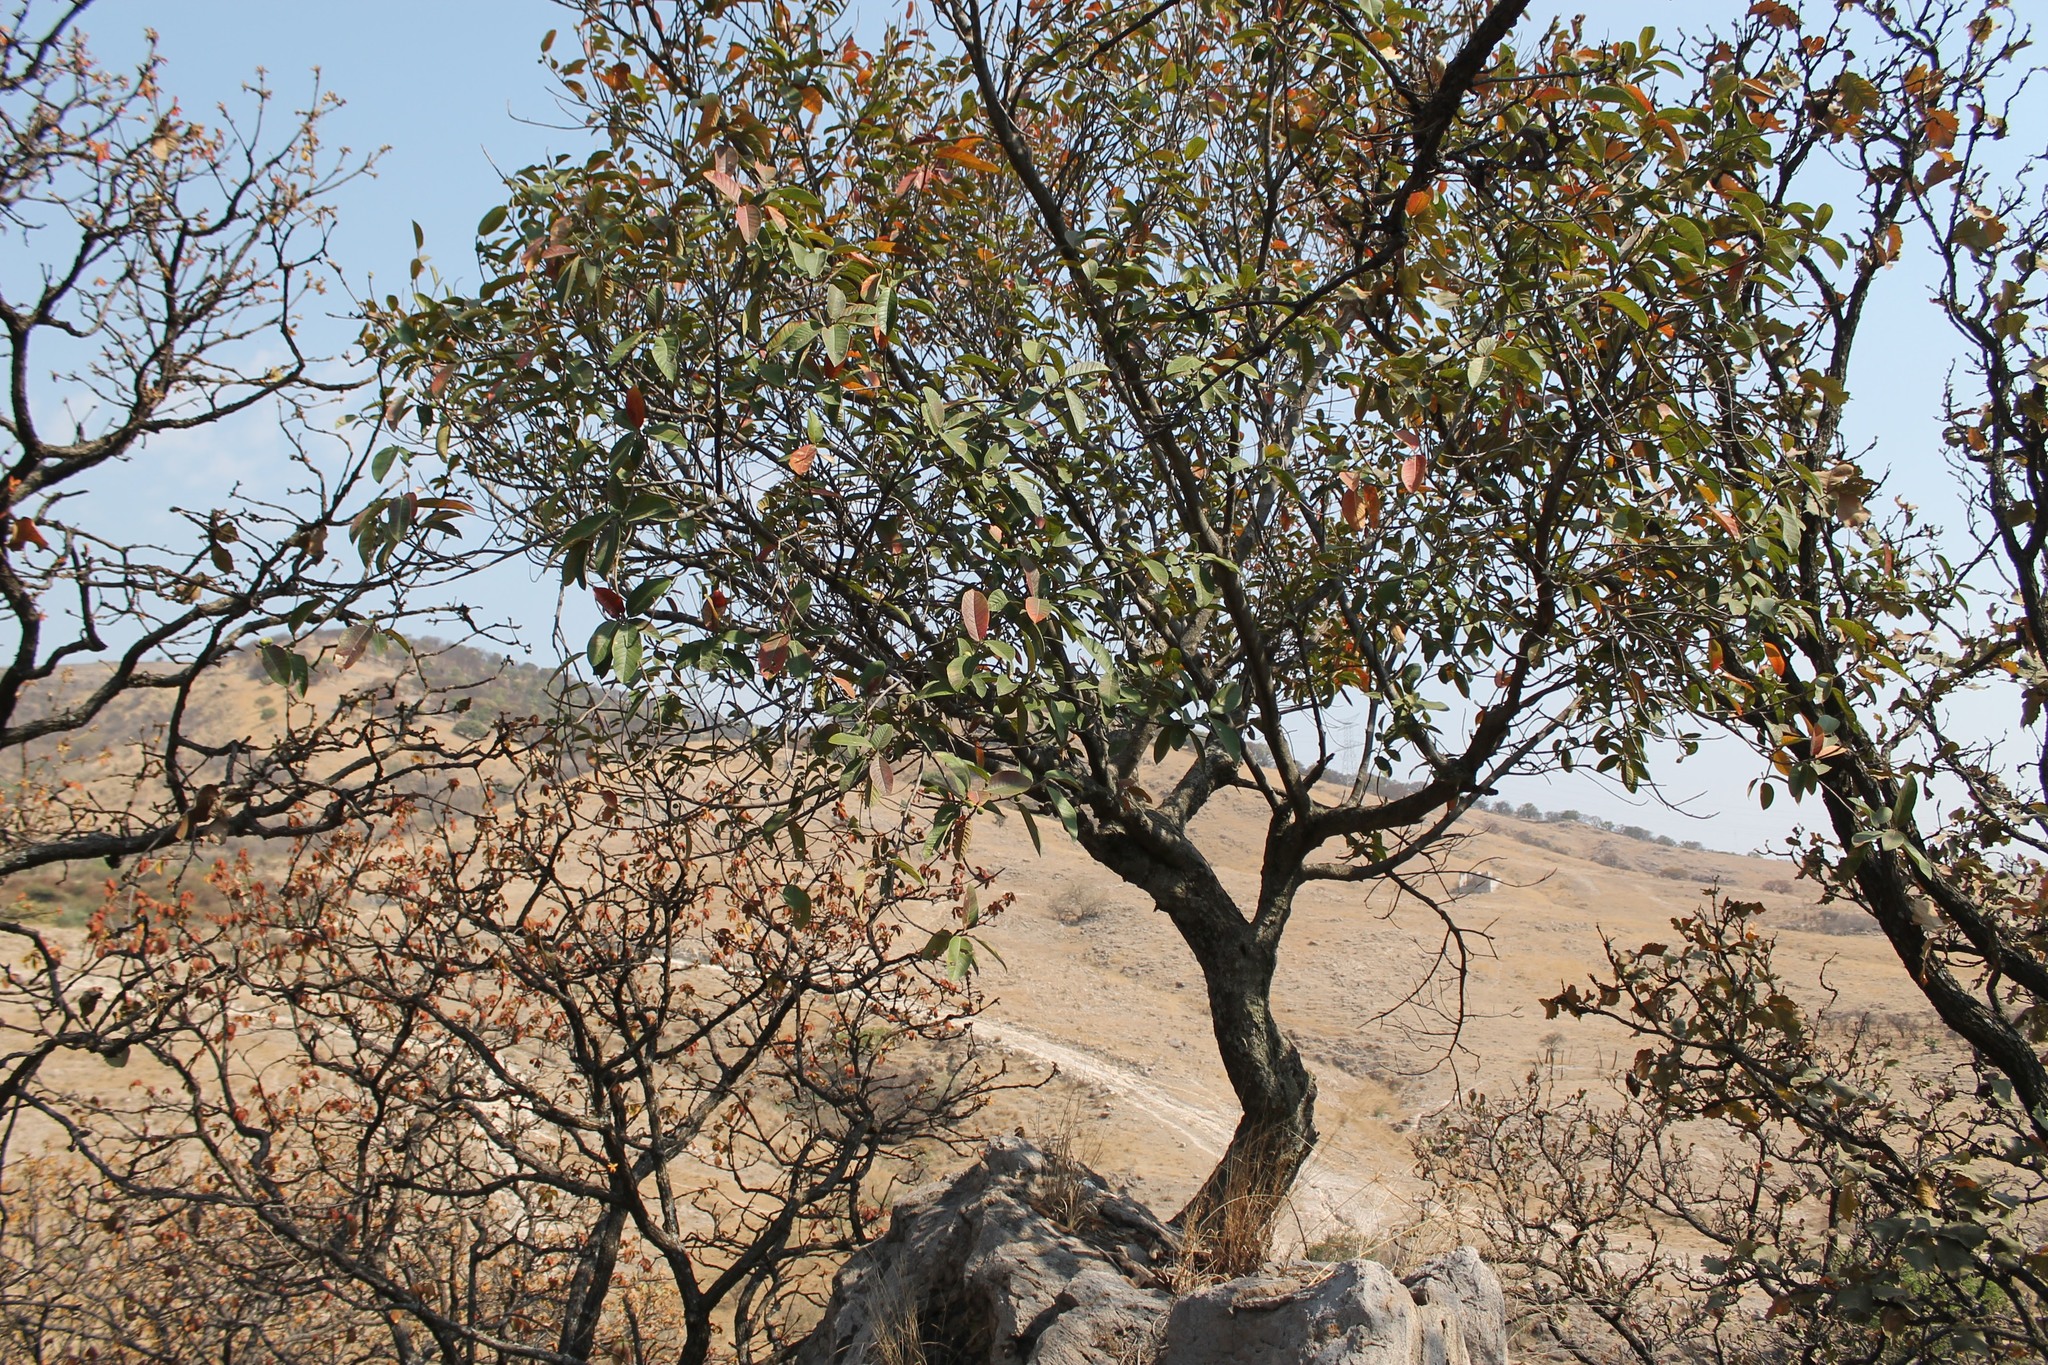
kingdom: Plantae
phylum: Tracheophyta
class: Magnoliopsida
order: Rosales
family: Moraceae
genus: Ficus
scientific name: Ficus velutina
